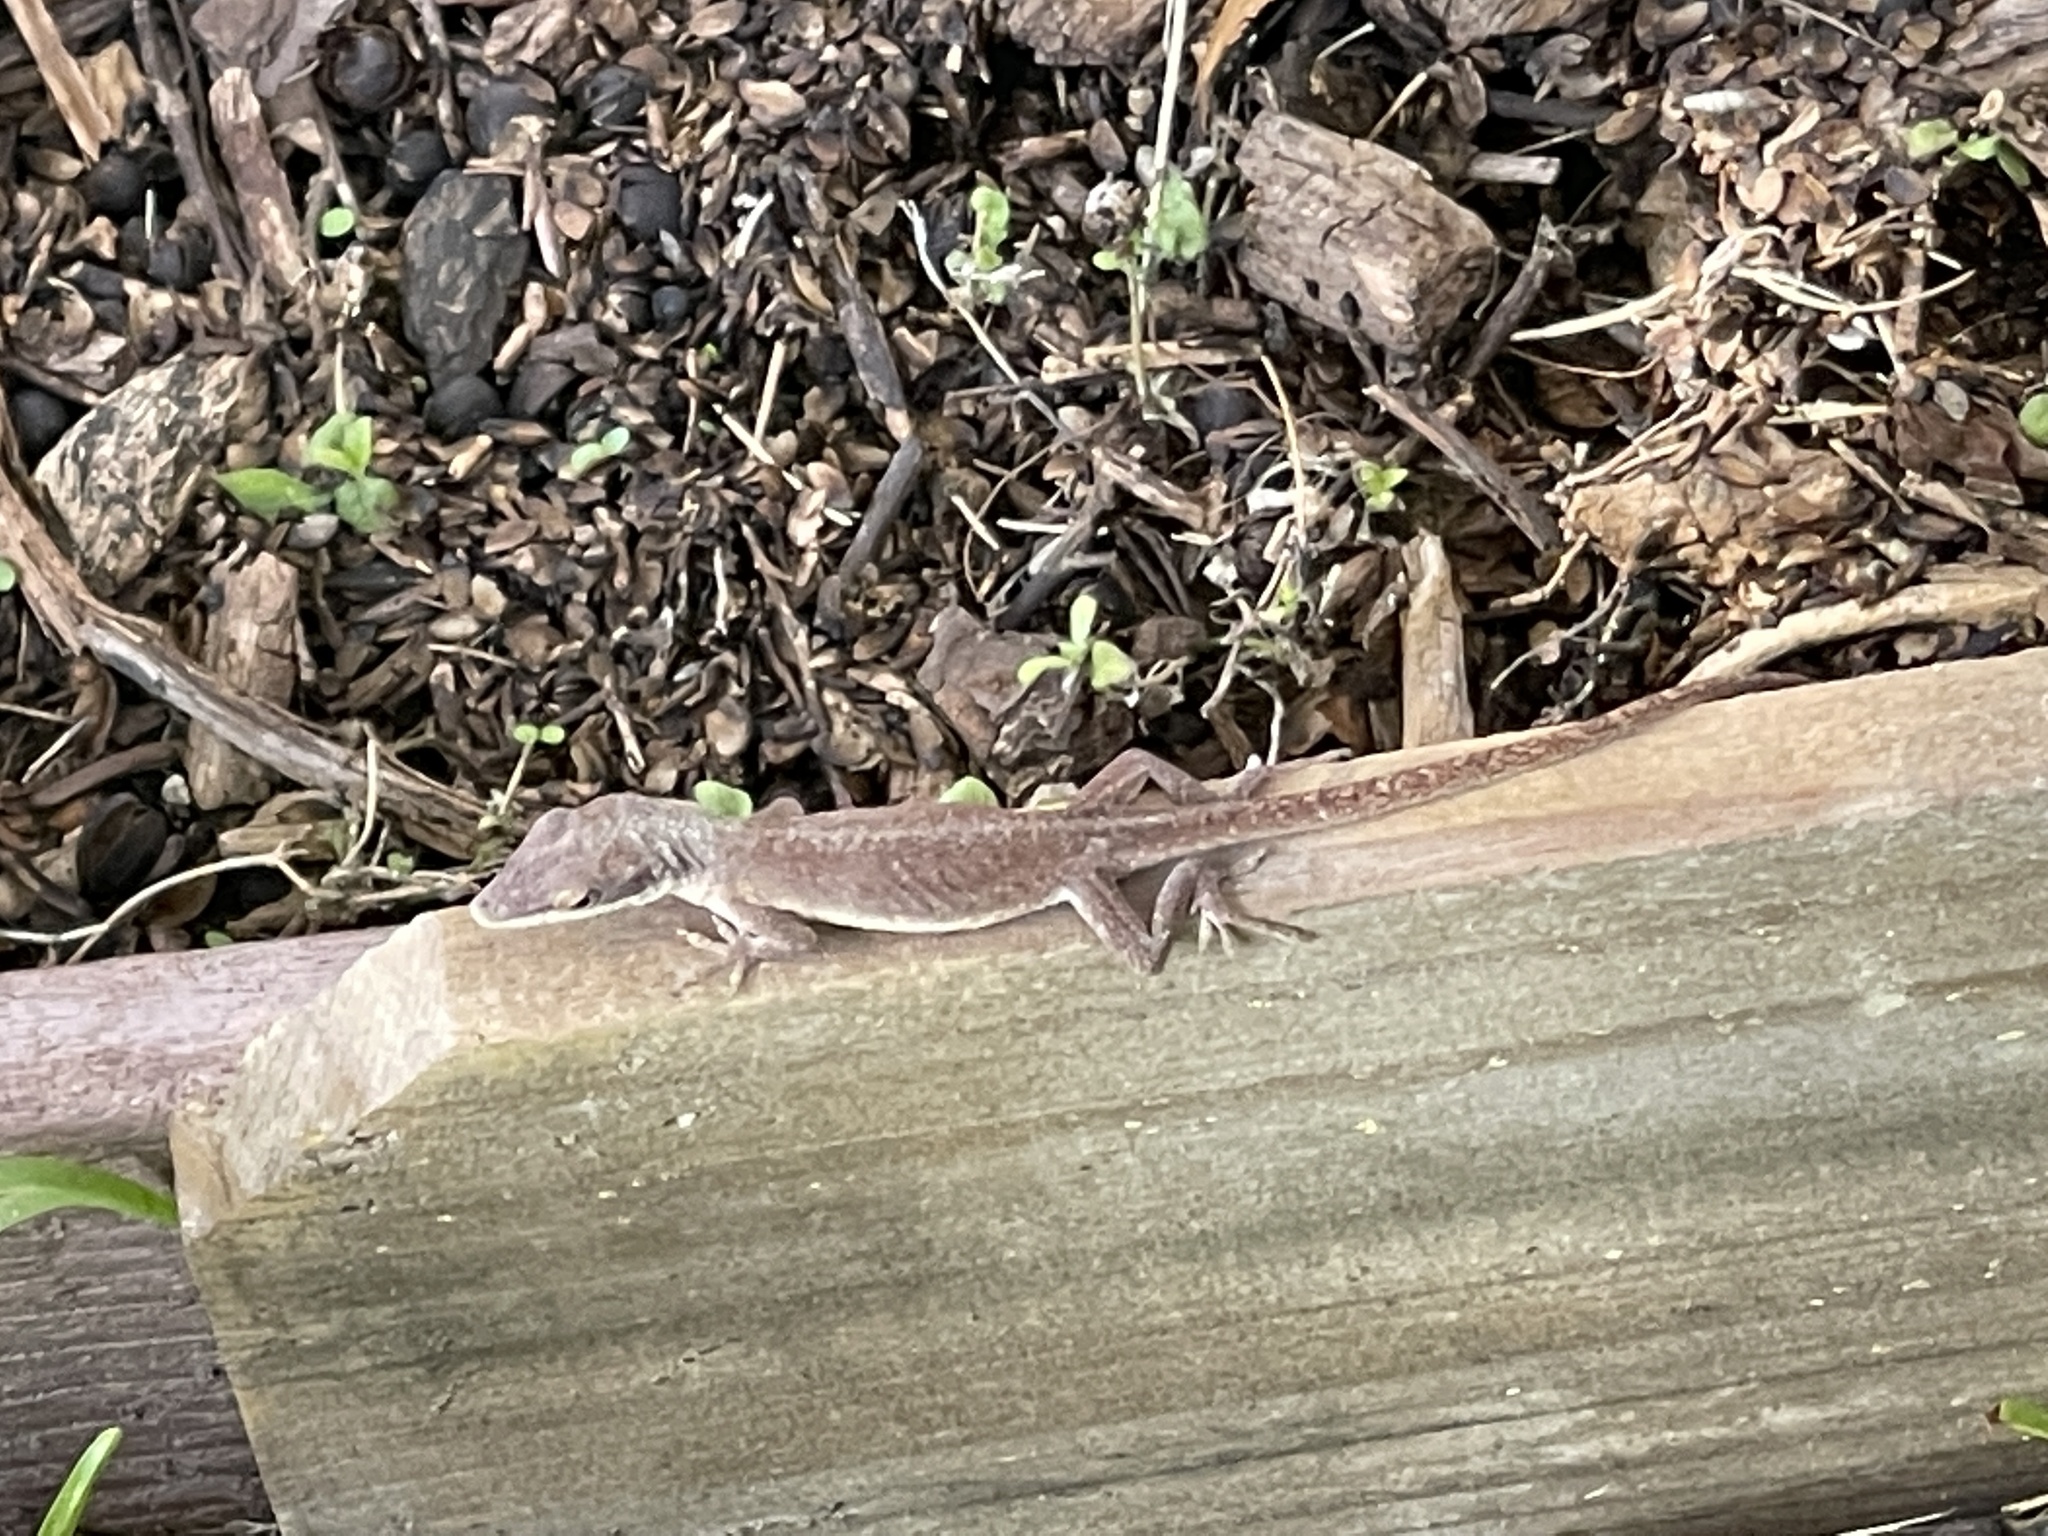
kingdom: Animalia
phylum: Chordata
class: Squamata
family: Dactyloidae
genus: Anolis
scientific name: Anolis carolinensis
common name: Green anole
